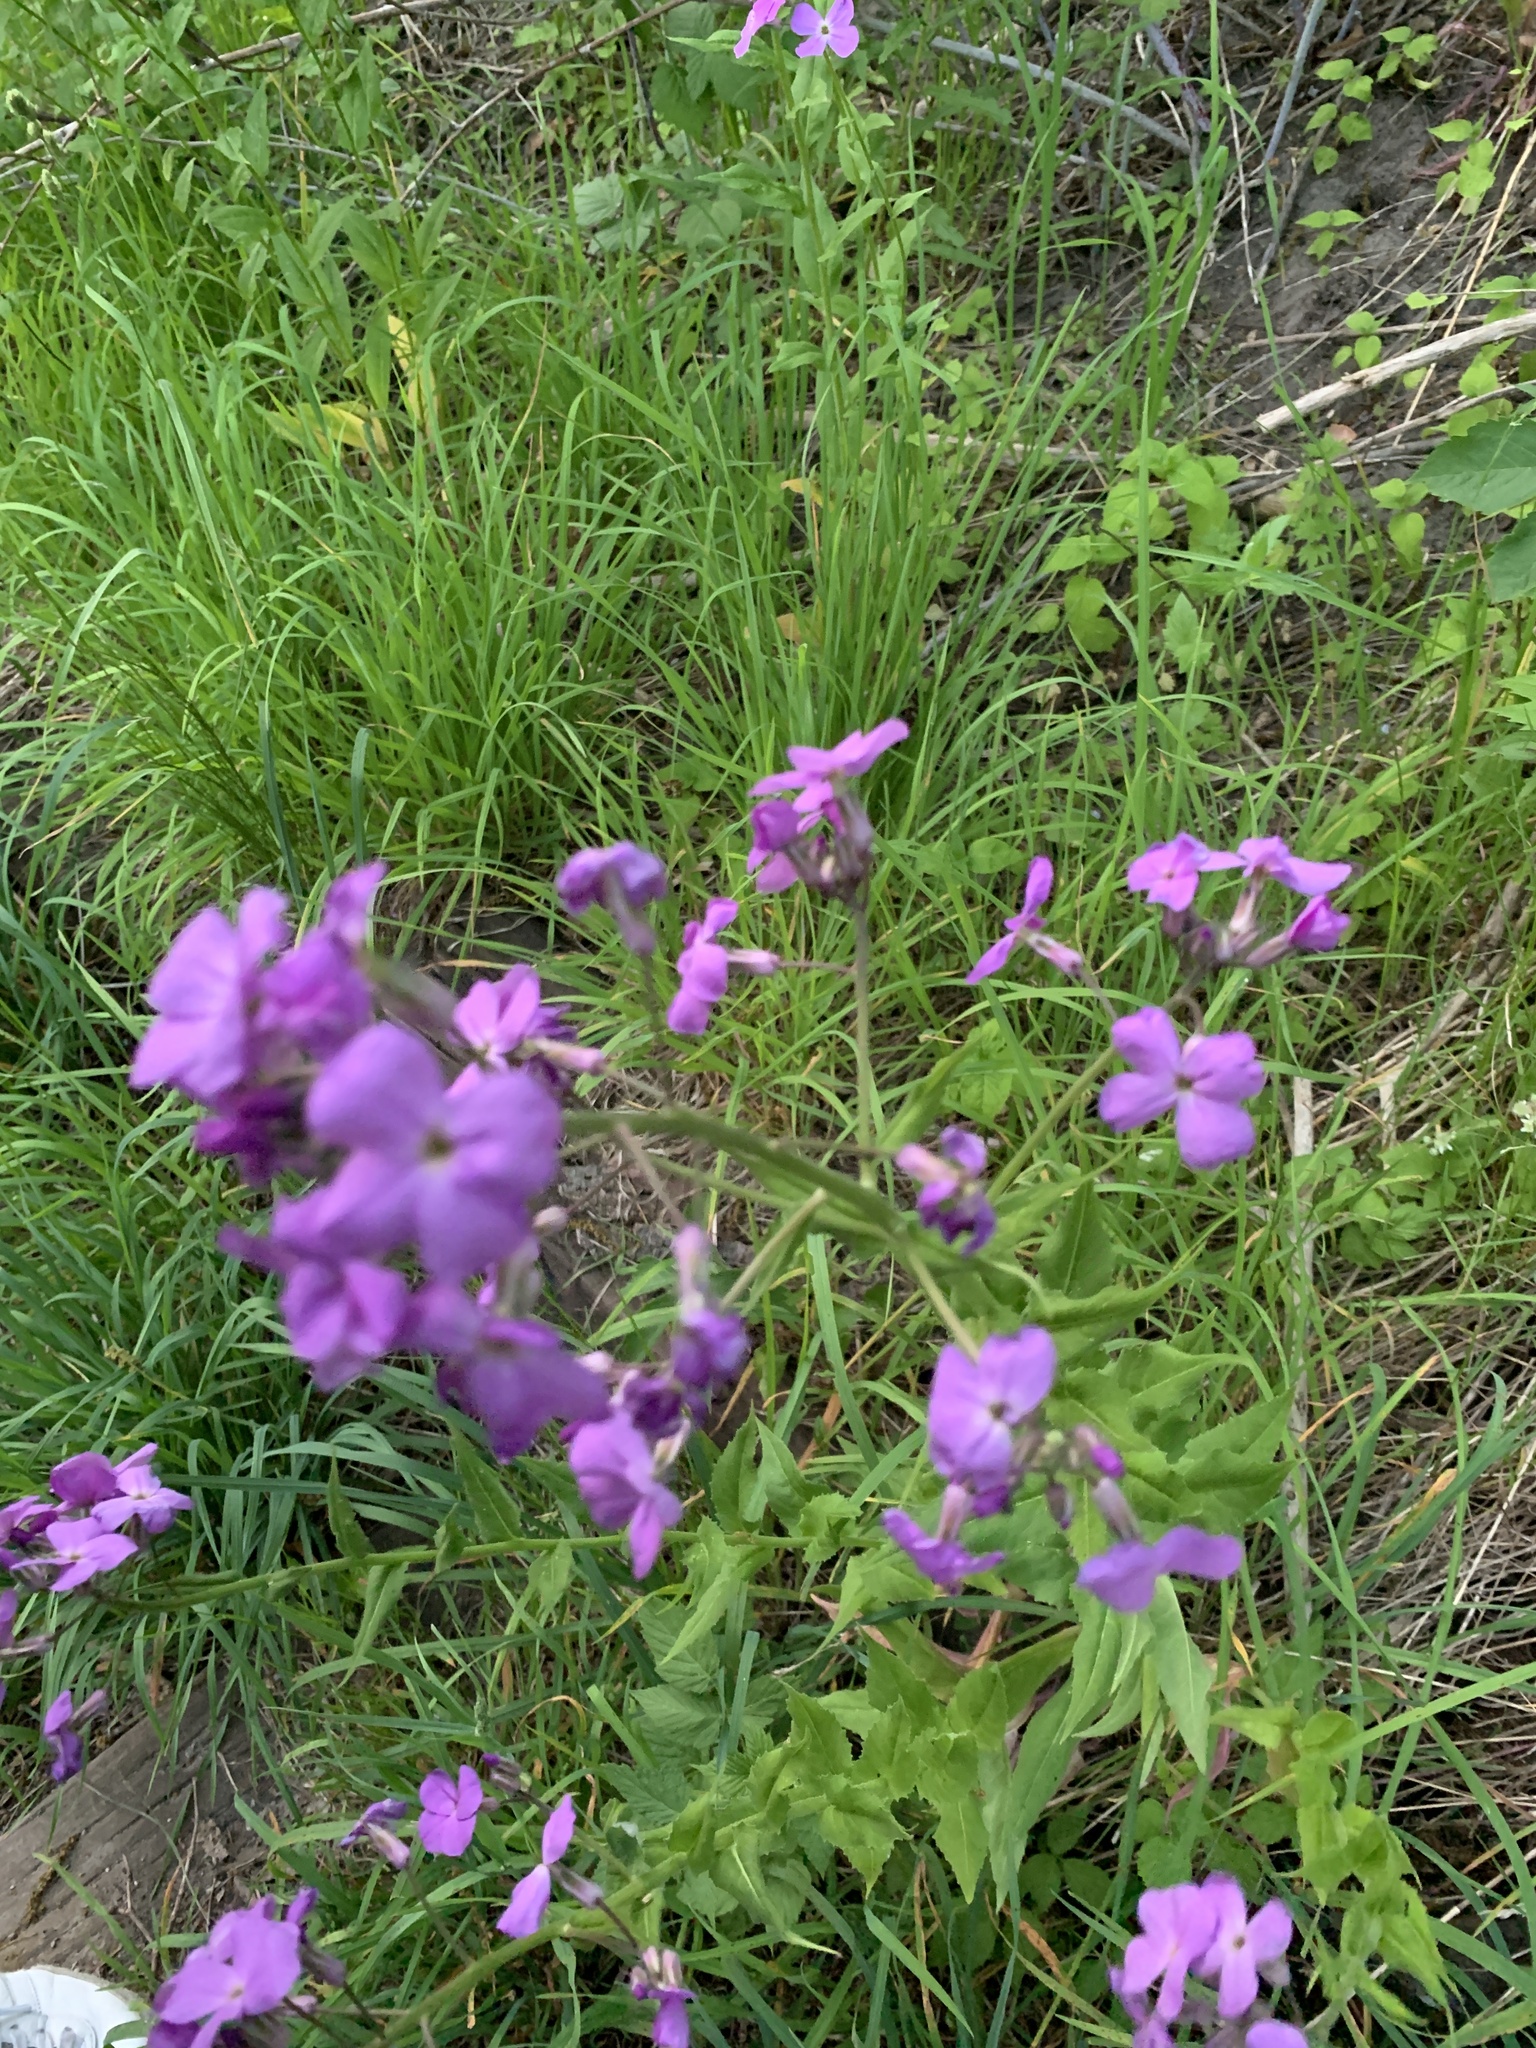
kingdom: Plantae
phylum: Tracheophyta
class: Magnoliopsida
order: Brassicales
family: Brassicaceae
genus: Hesperis
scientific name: Hesperis matronalis
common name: Dame's-violet
